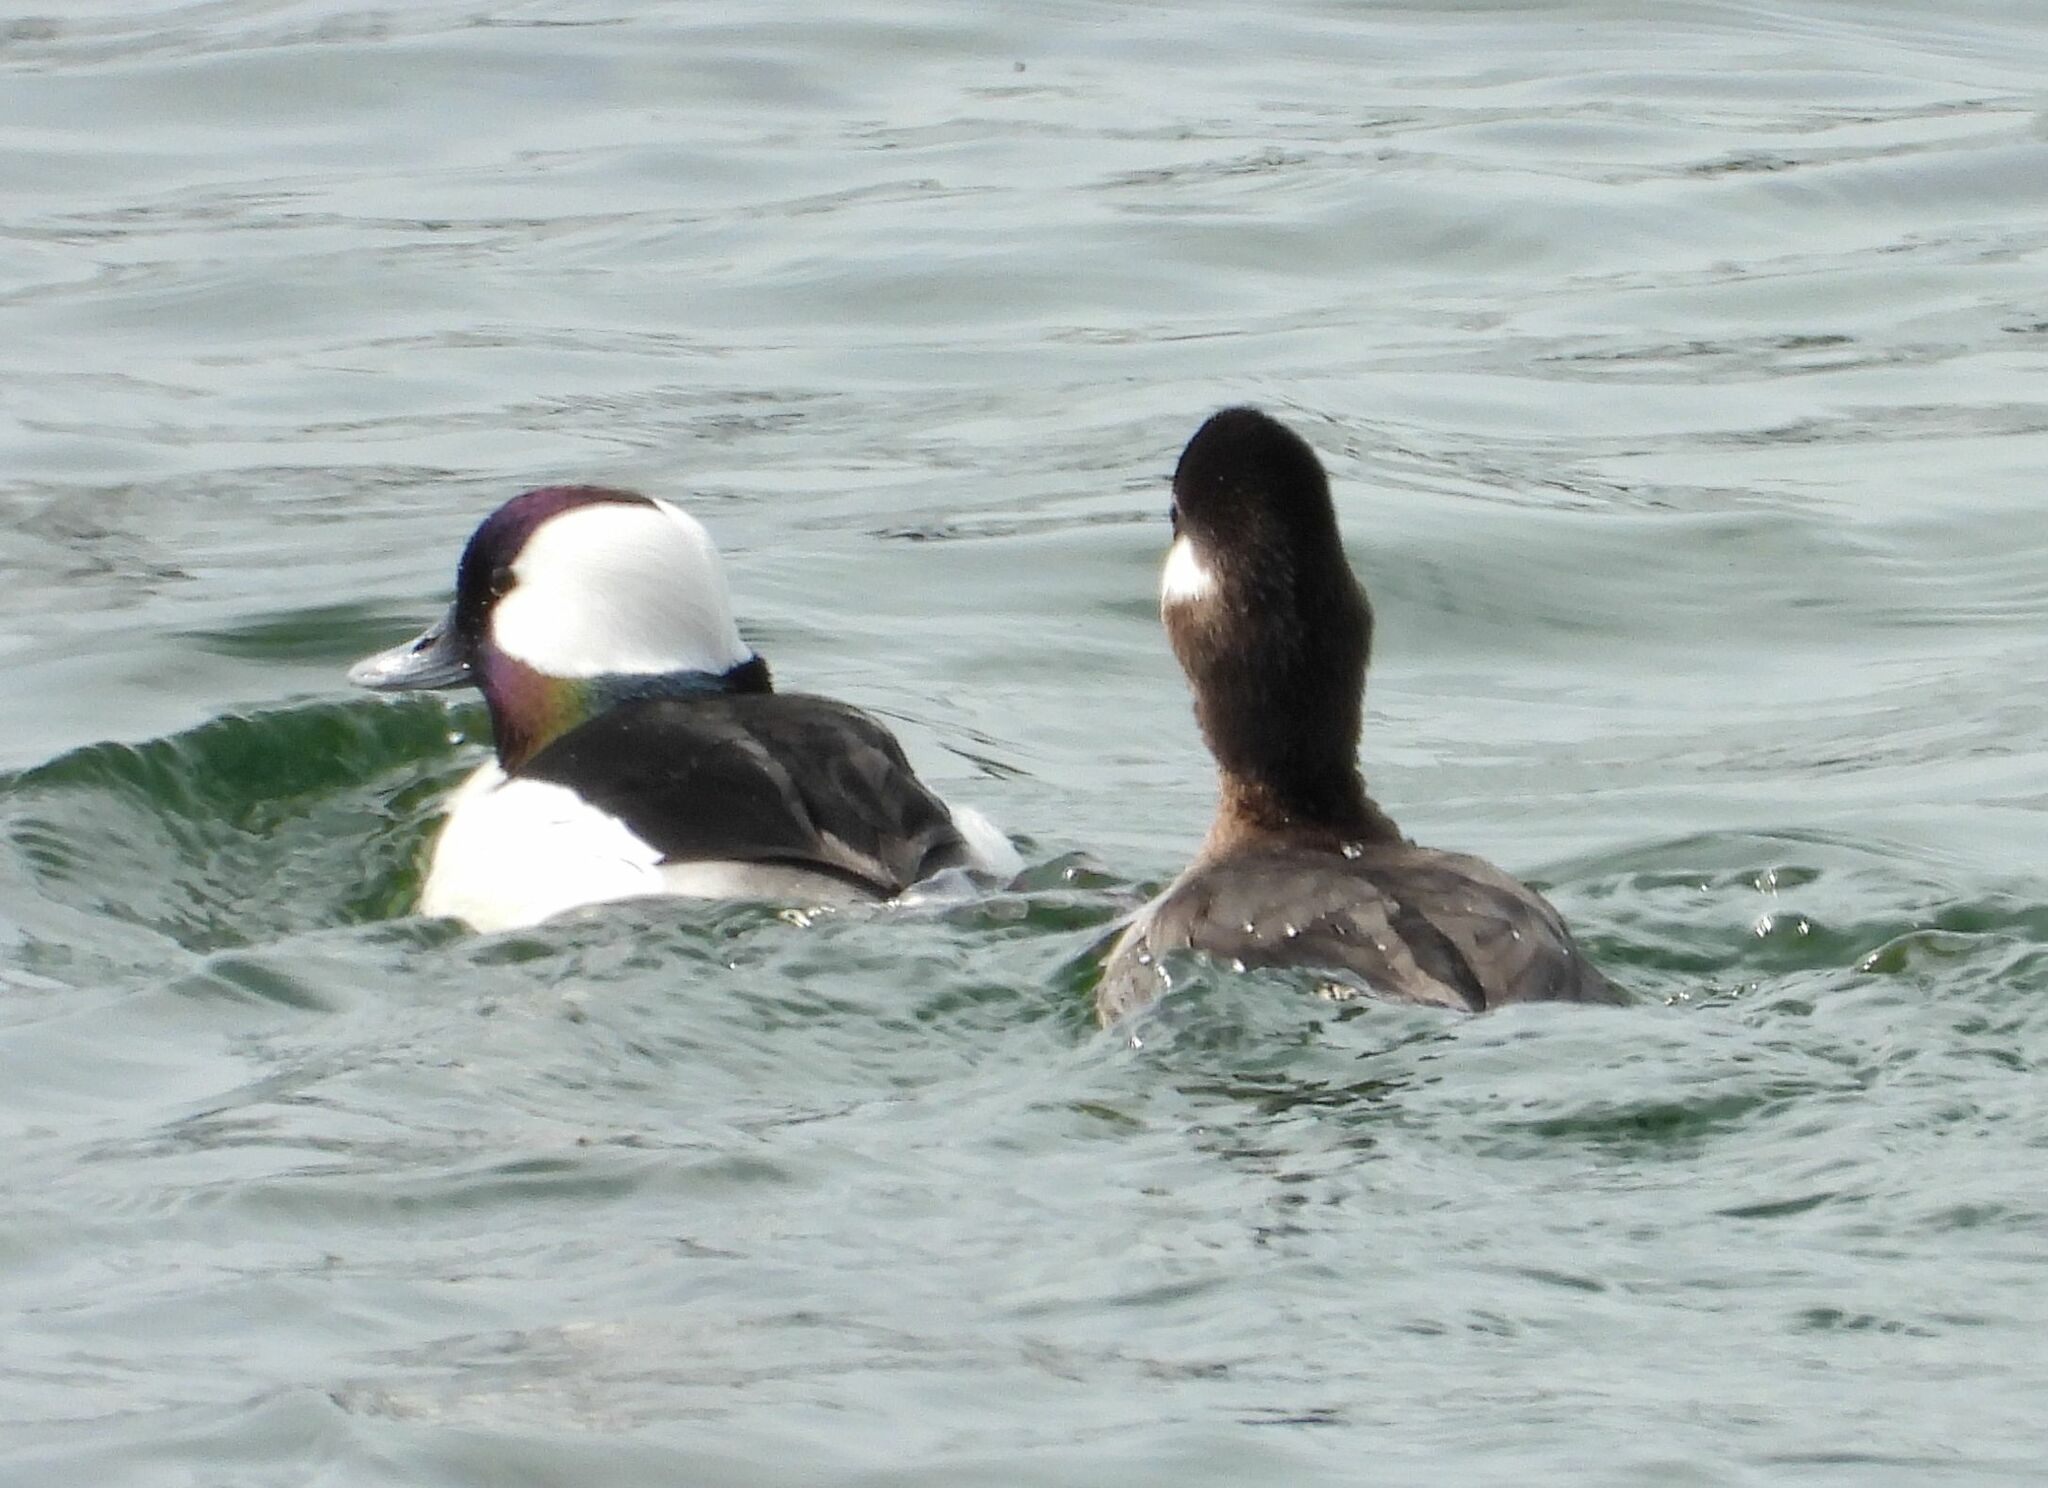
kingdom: Animalia
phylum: Chordata
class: Aves
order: Anseriformes
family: Anatidae
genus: Bucephala
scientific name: Bucephala albeola
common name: Bufflehead
